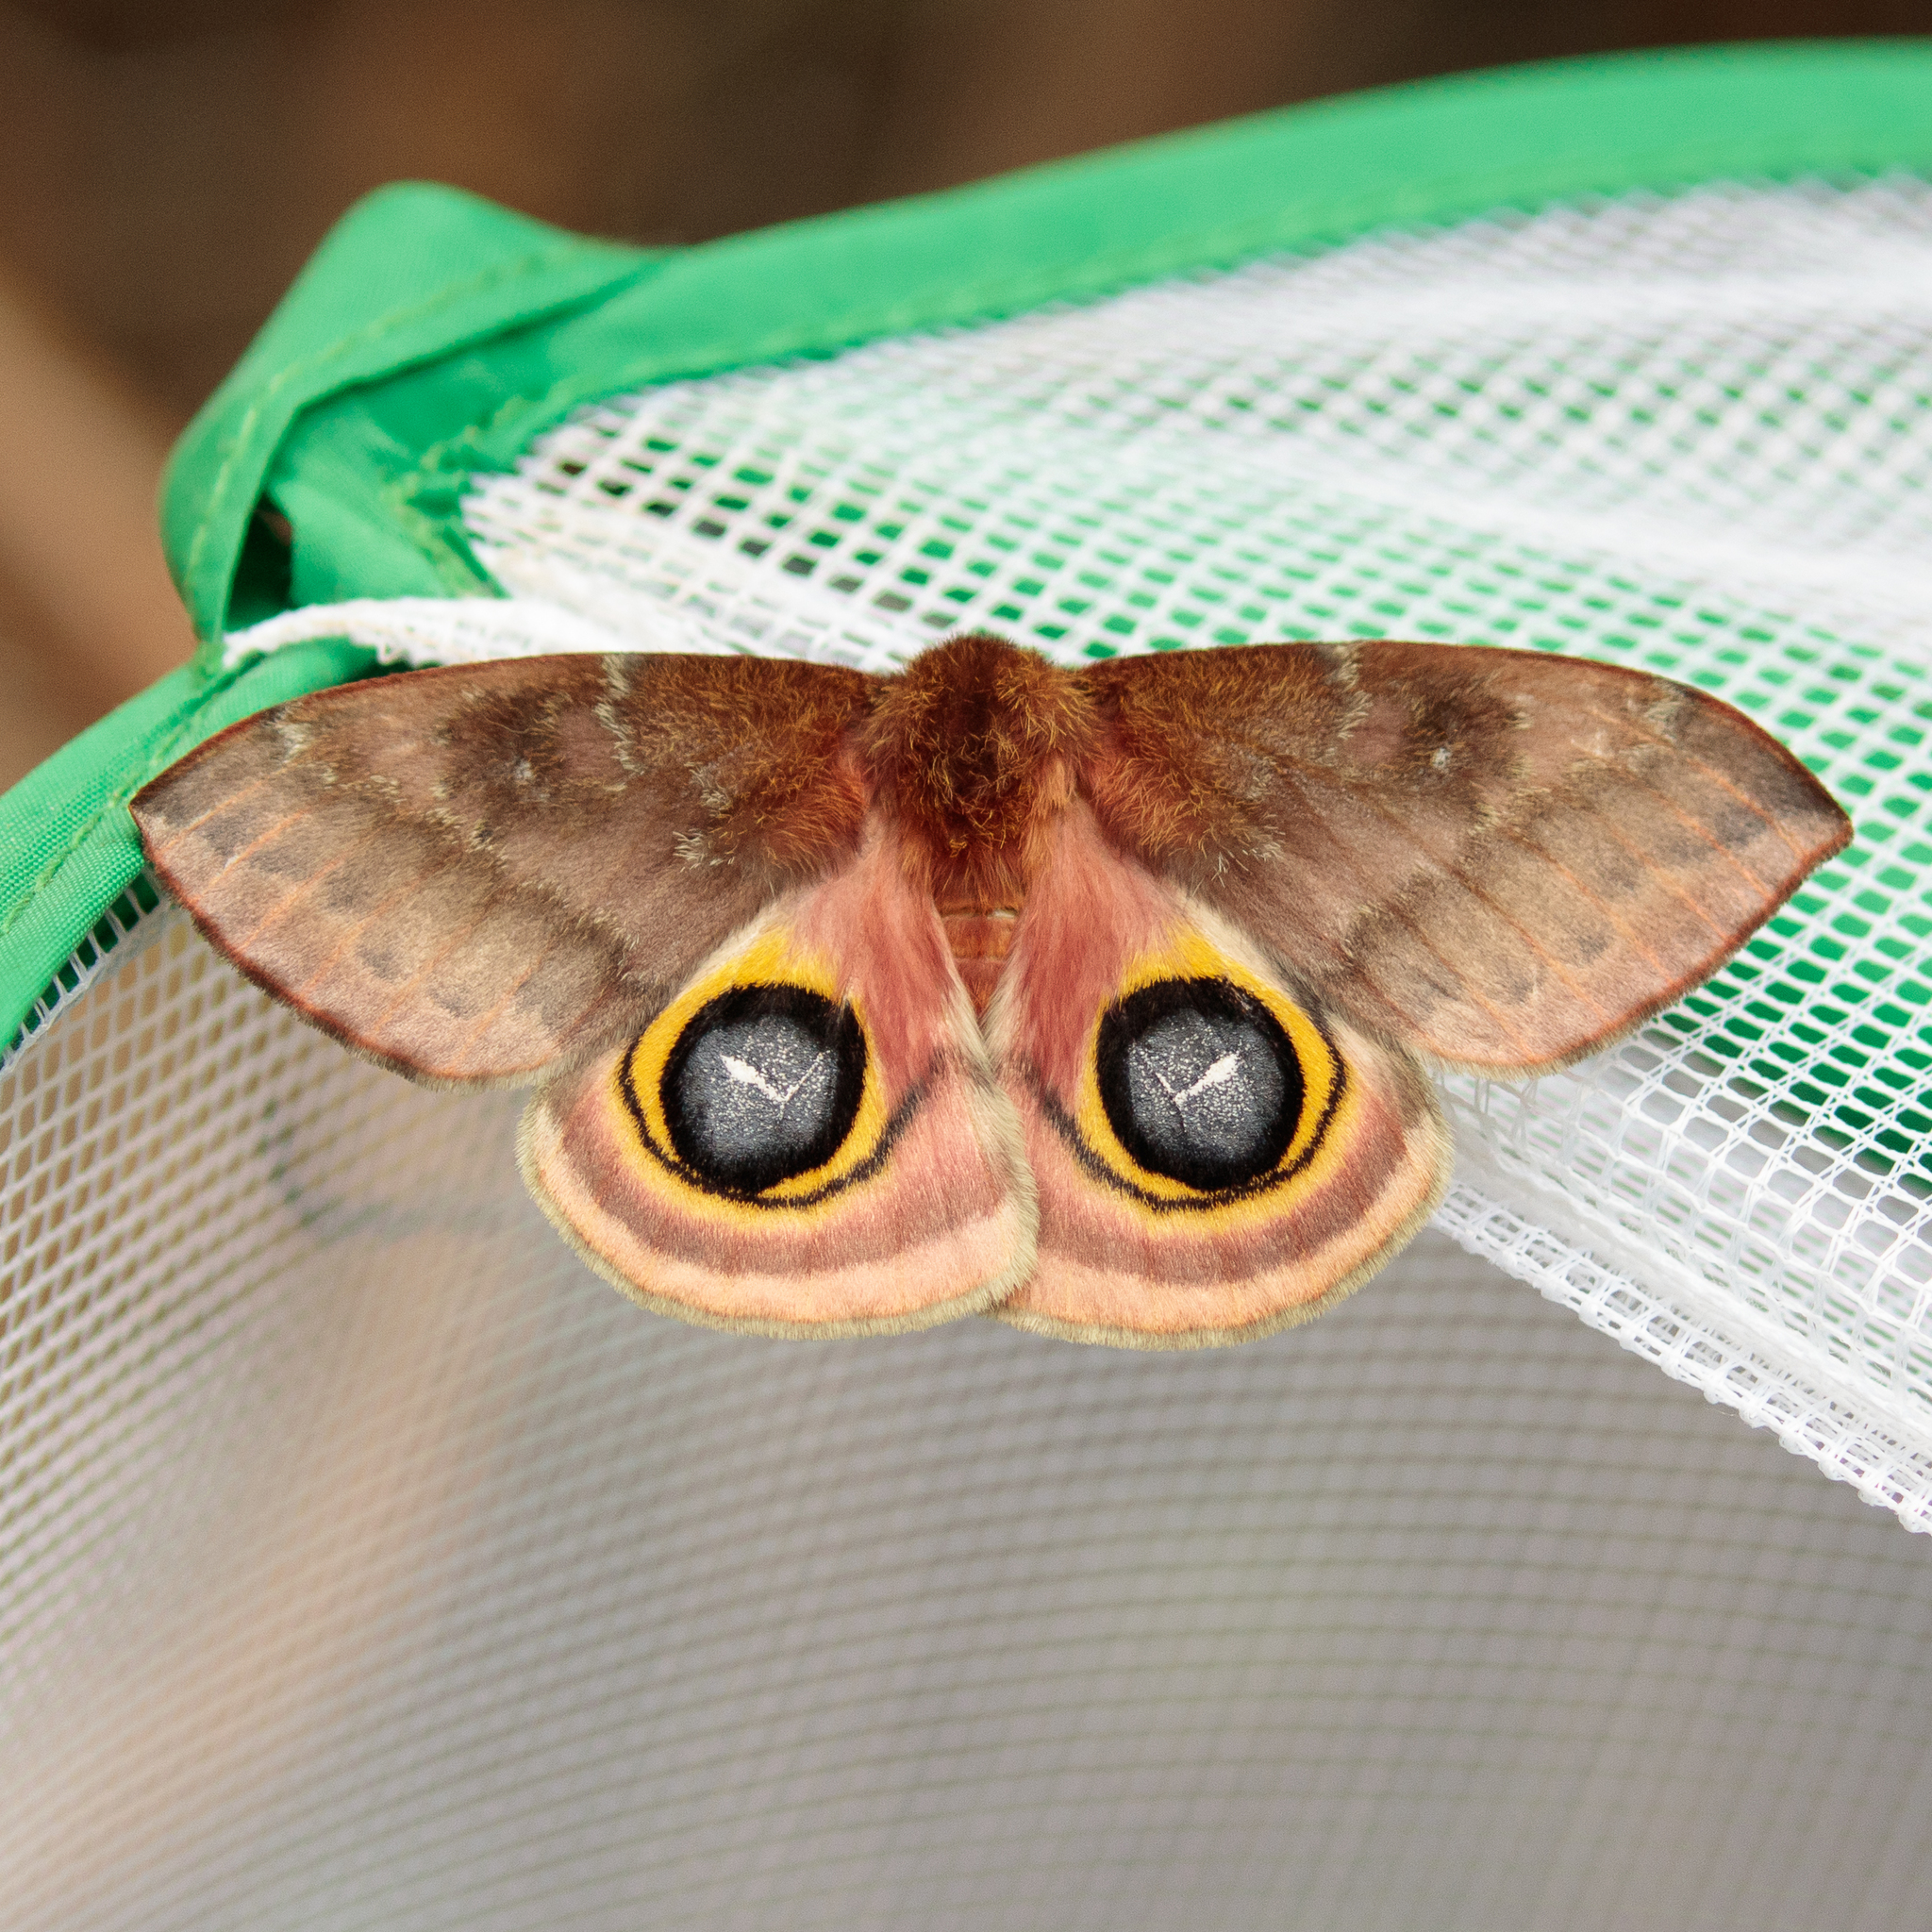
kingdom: Animalia
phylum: Arthropoda
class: Insecta
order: Lepidoptera
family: Saturniidae
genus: Automeris
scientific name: Automeris io
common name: Io moth
